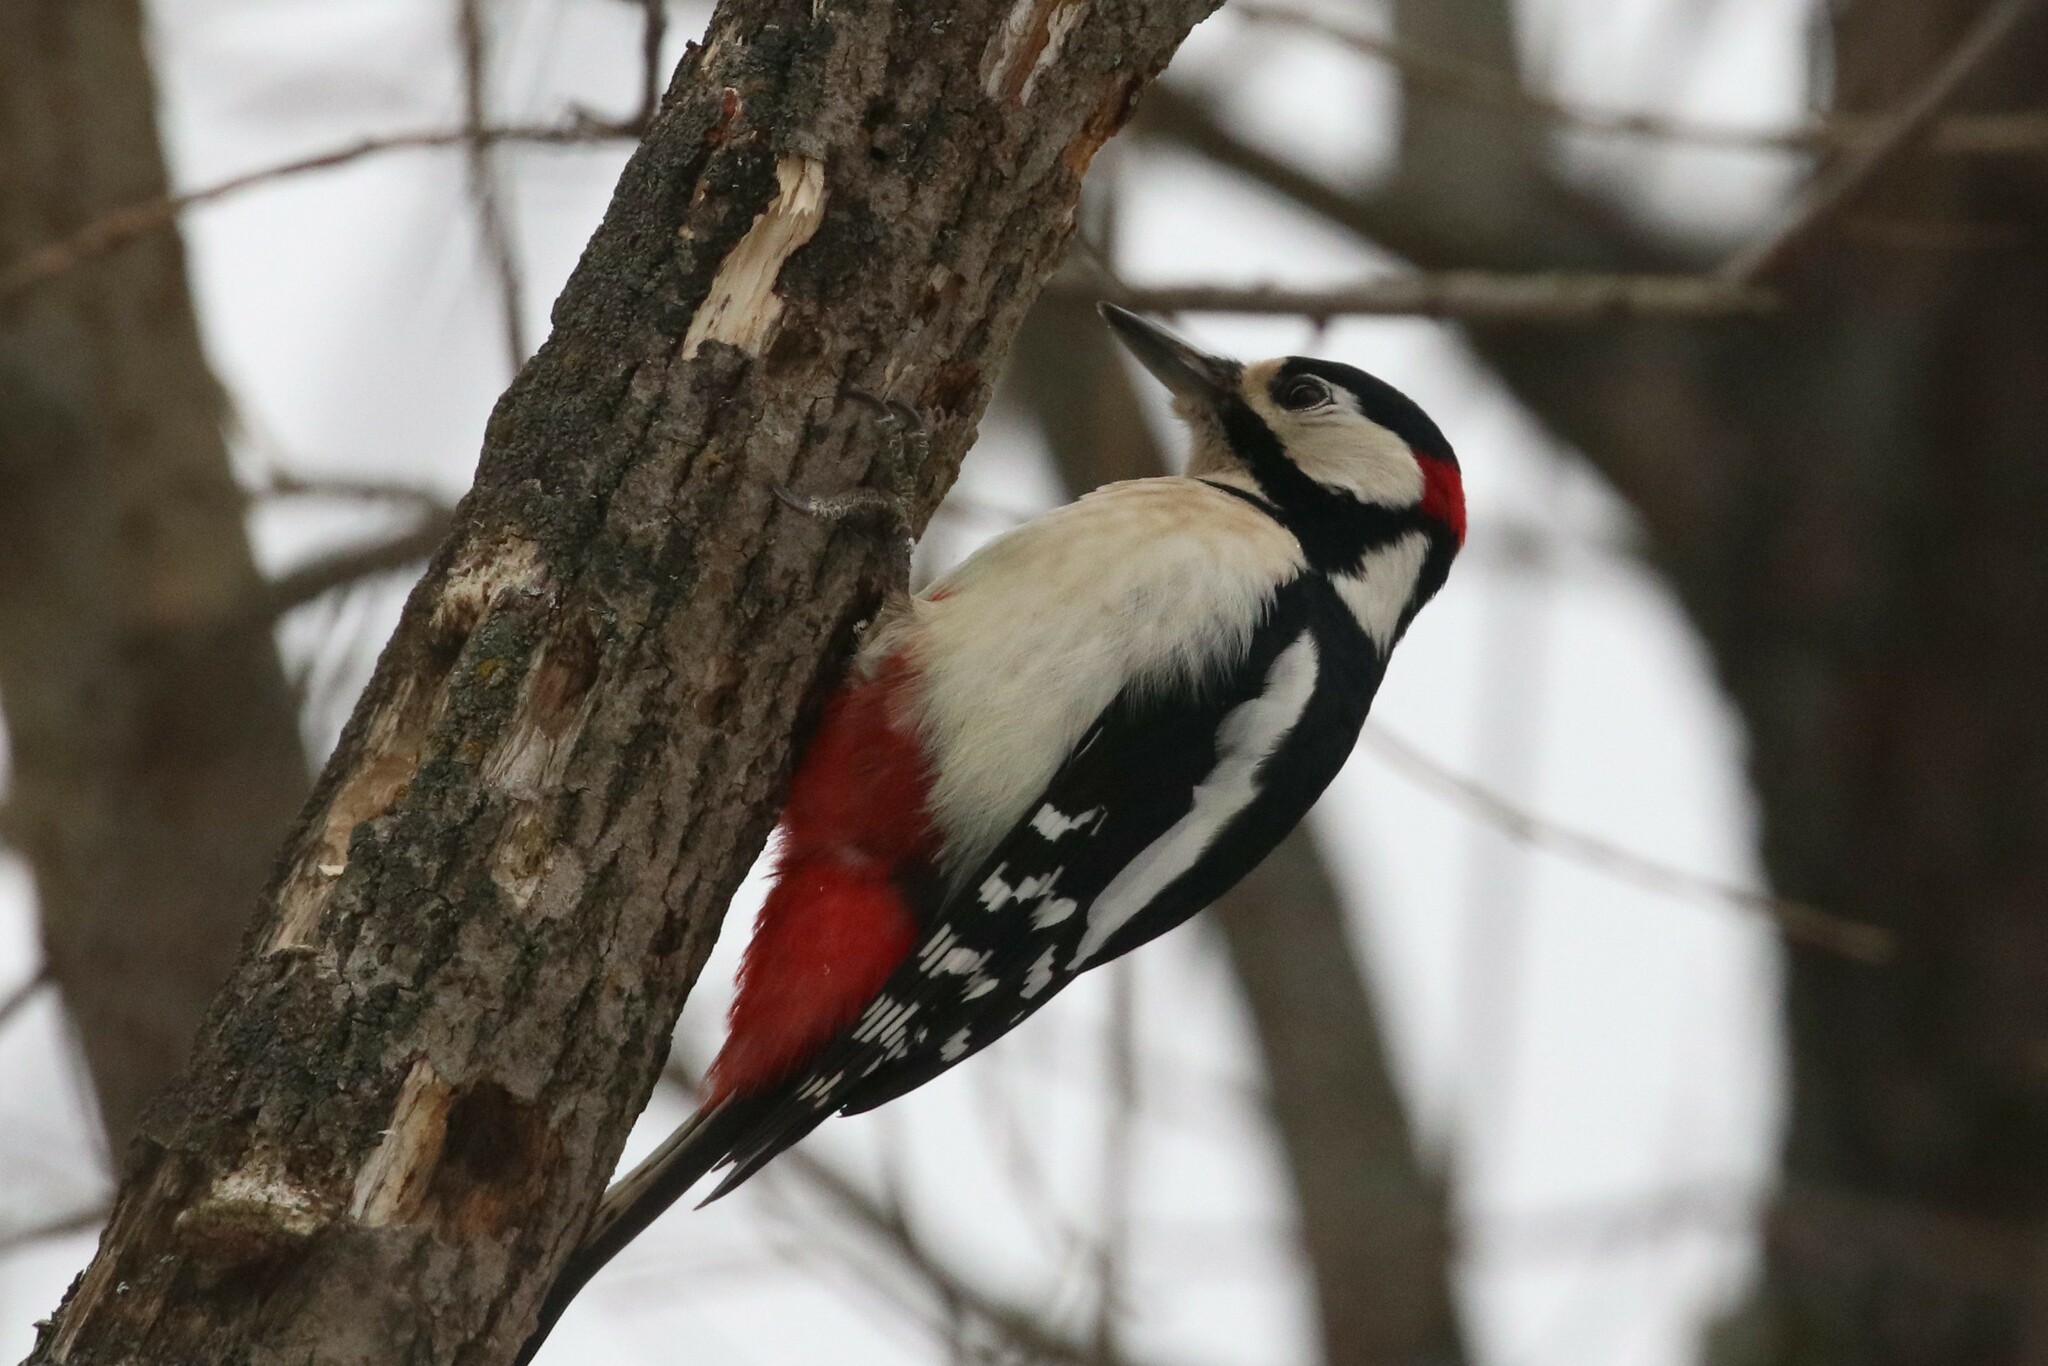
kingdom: Animalia
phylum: Chordata
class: Aves
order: Piciformes
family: Picidae
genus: Dendrocopos
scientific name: Dendrocopos major
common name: Great spotted woodpecker
